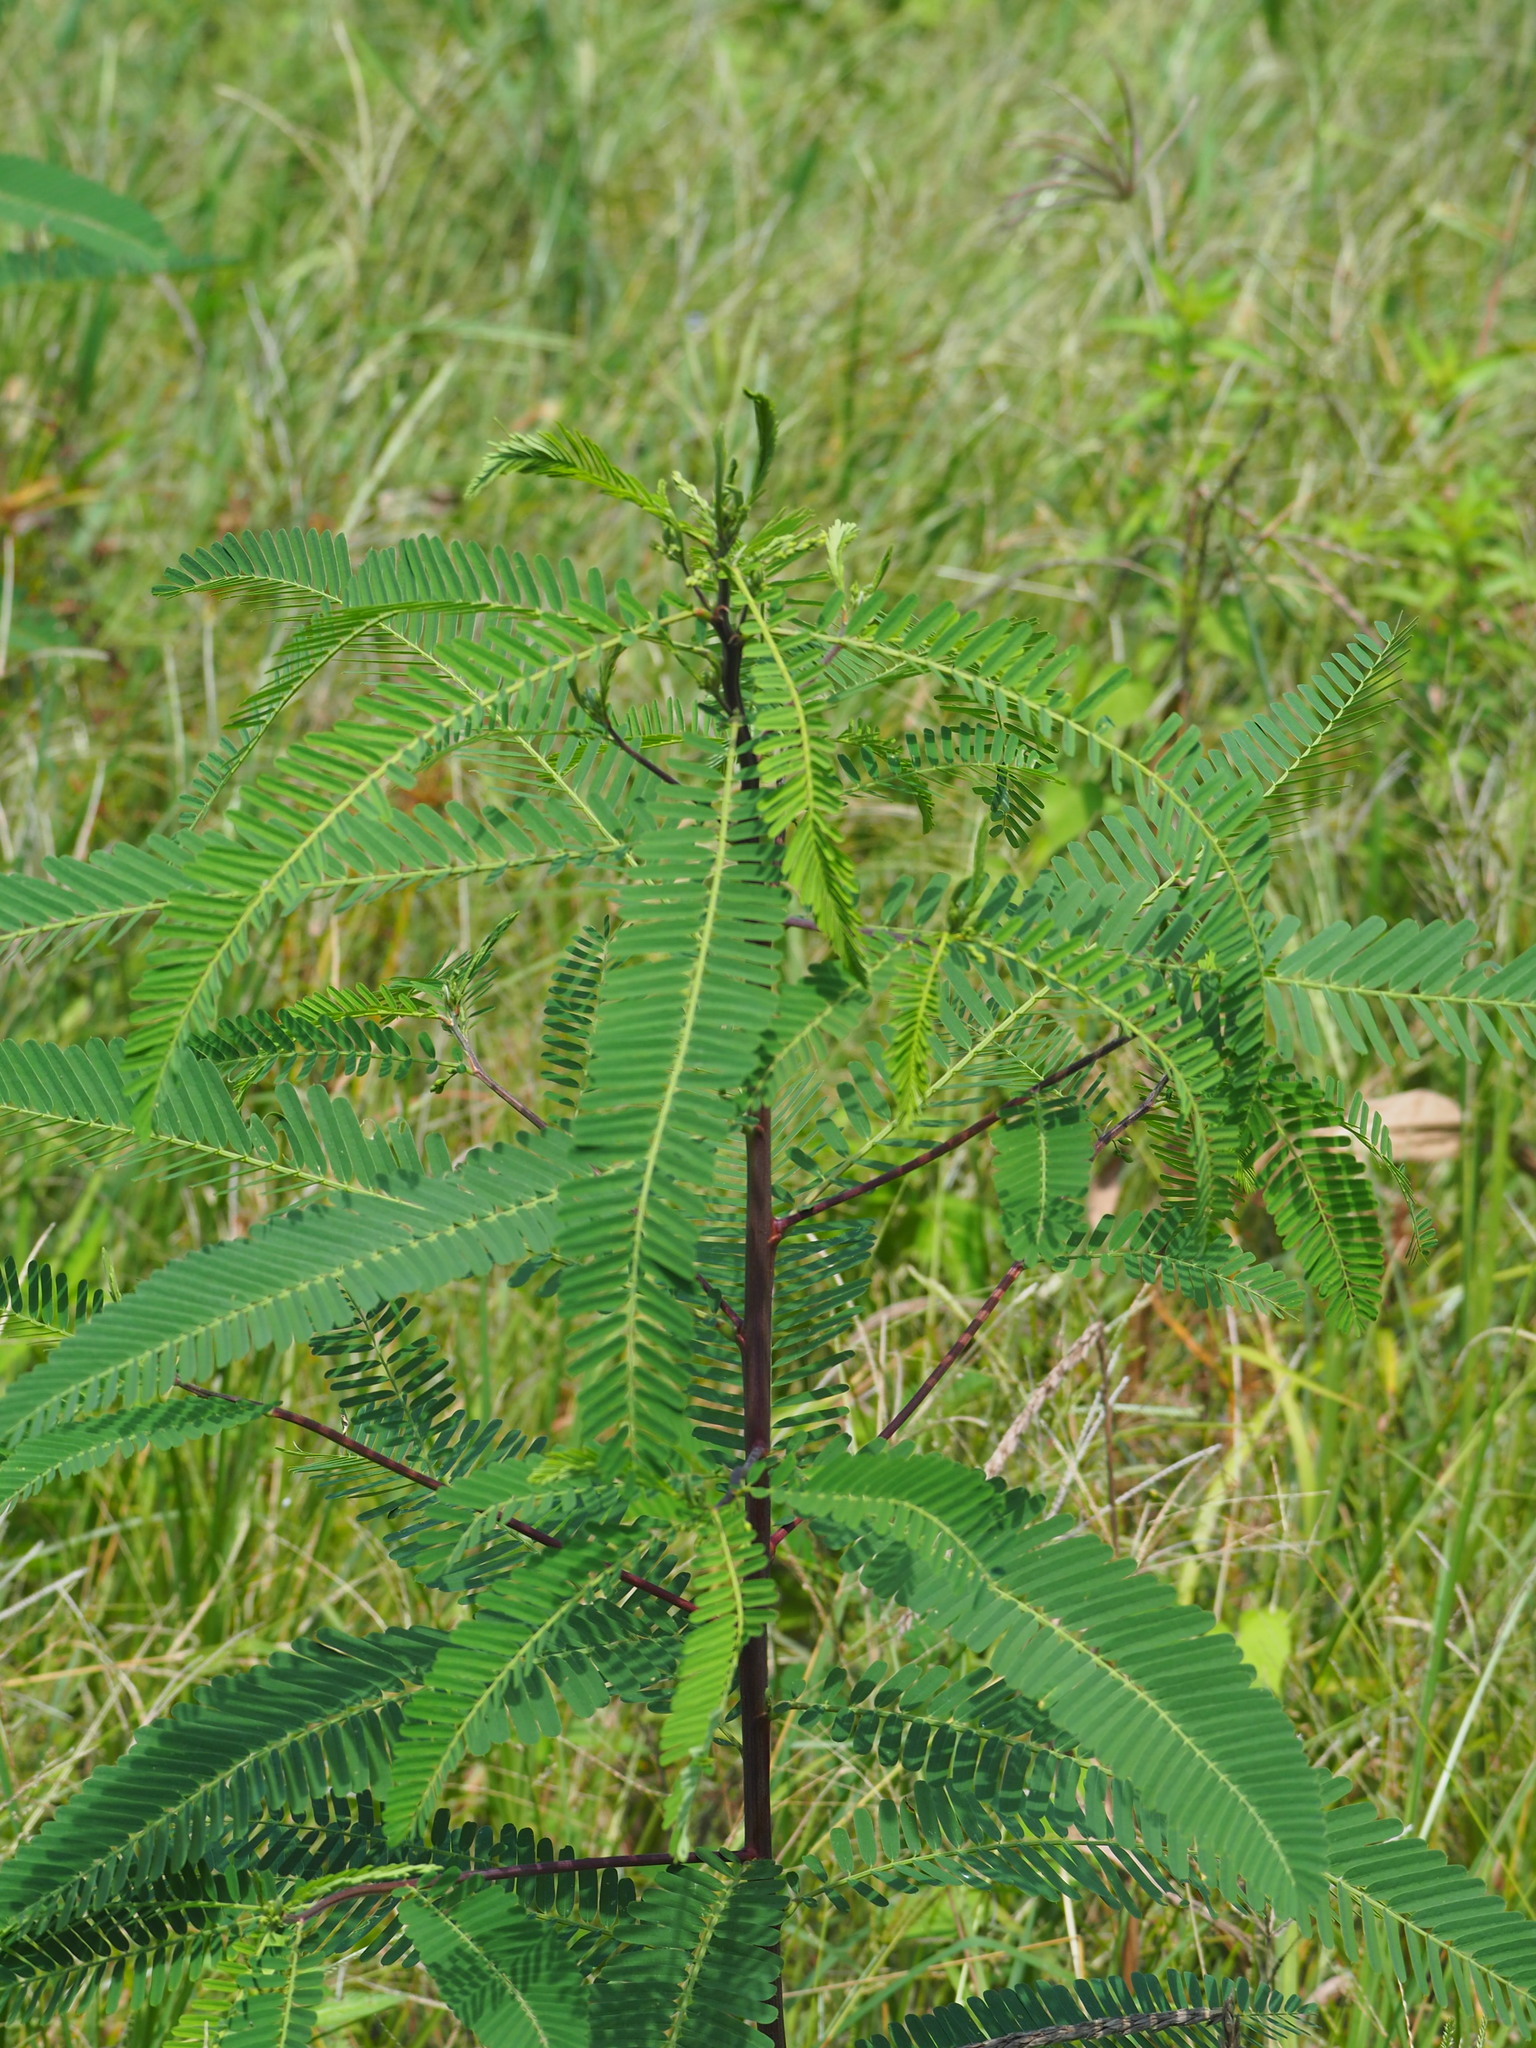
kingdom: Plantae
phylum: Tracheophyta
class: Magnoliopsida
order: Fabales
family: Fabaceae
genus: Sesbania
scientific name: Sesbania cannabina
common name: Canicha
